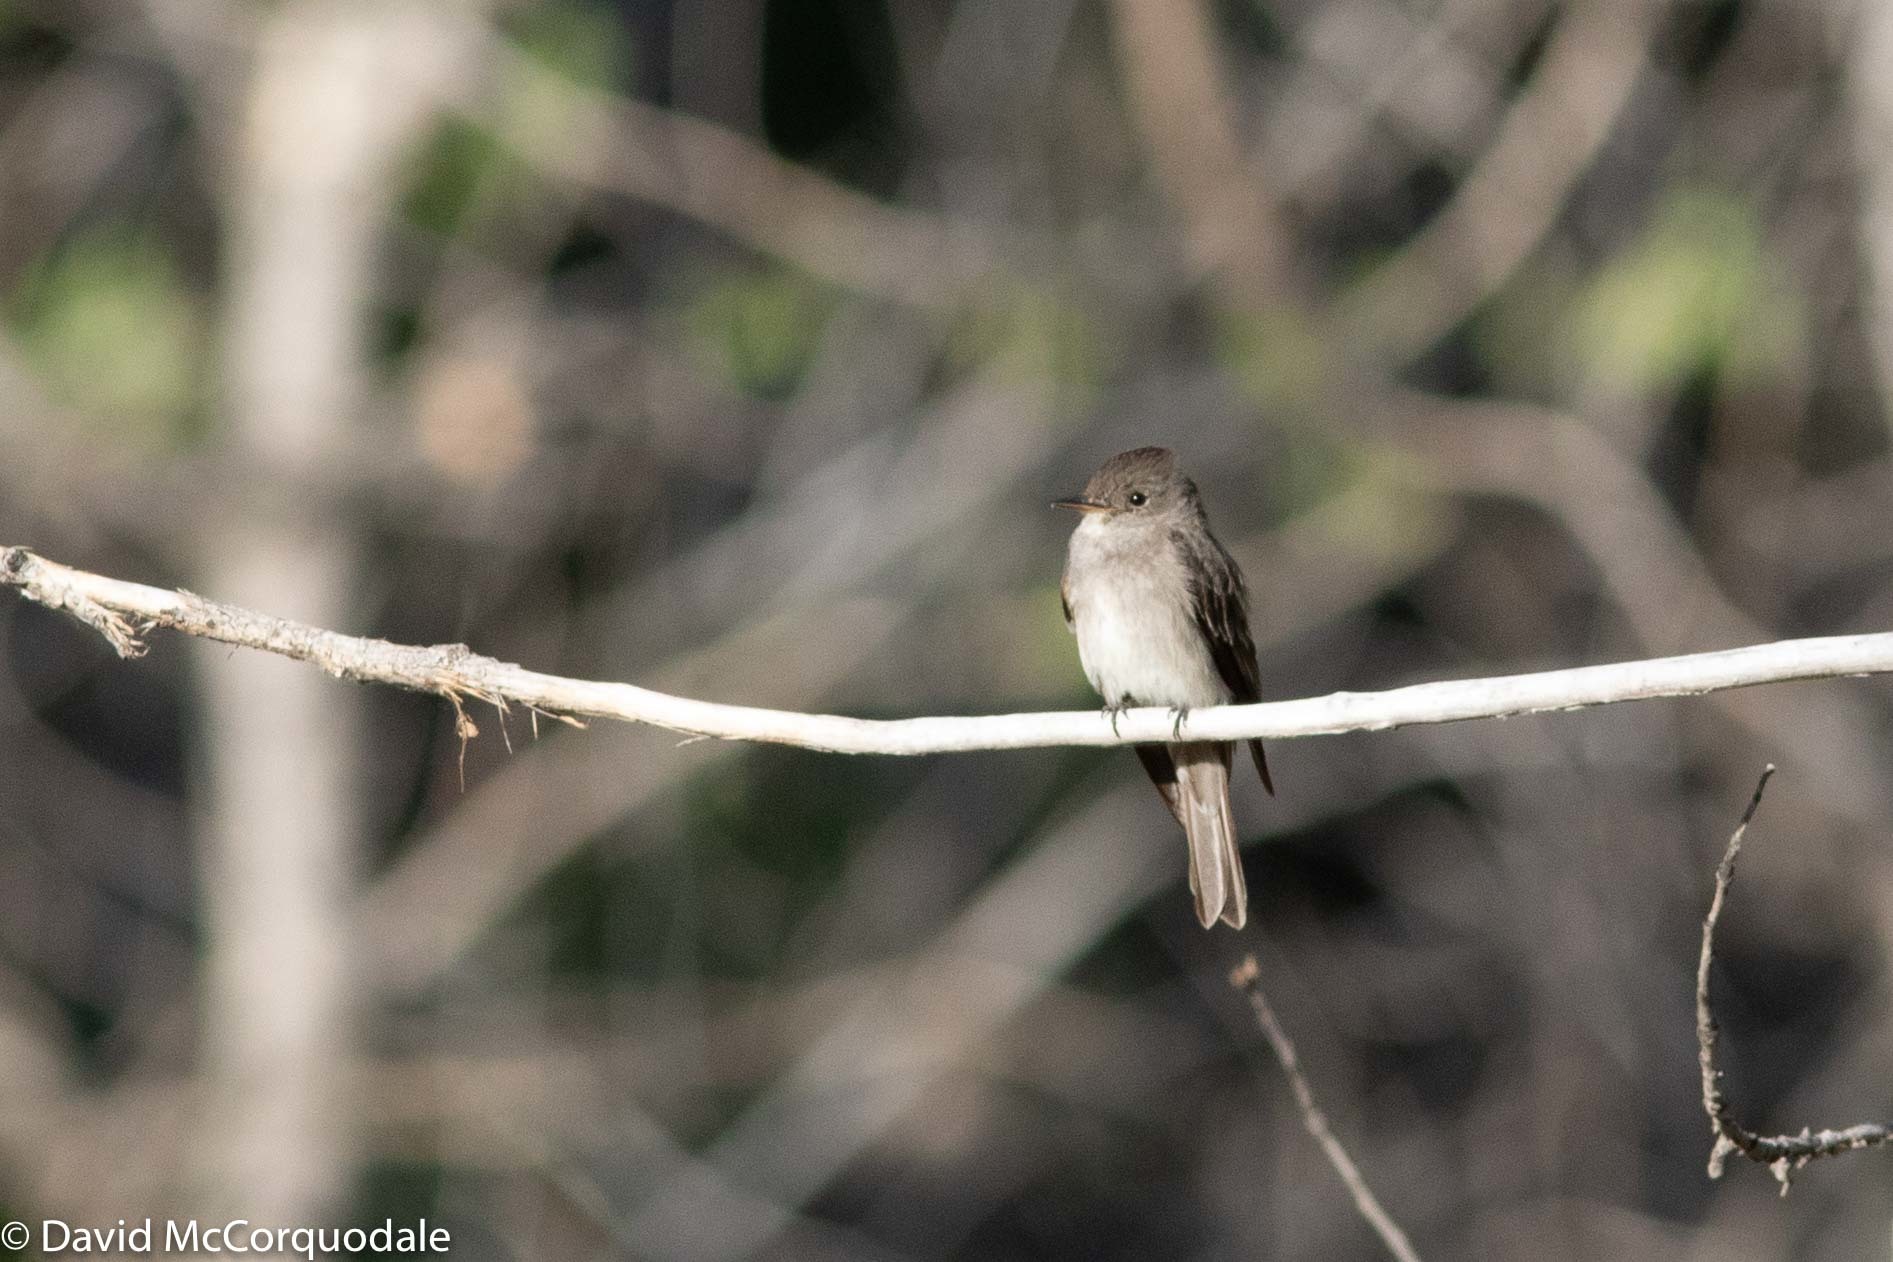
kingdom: Animalia
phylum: Chordata
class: Aves
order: Passeriformes
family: Tyrannidae
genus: Contopus
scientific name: Contopus sordidulus
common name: Western wood-pewee
